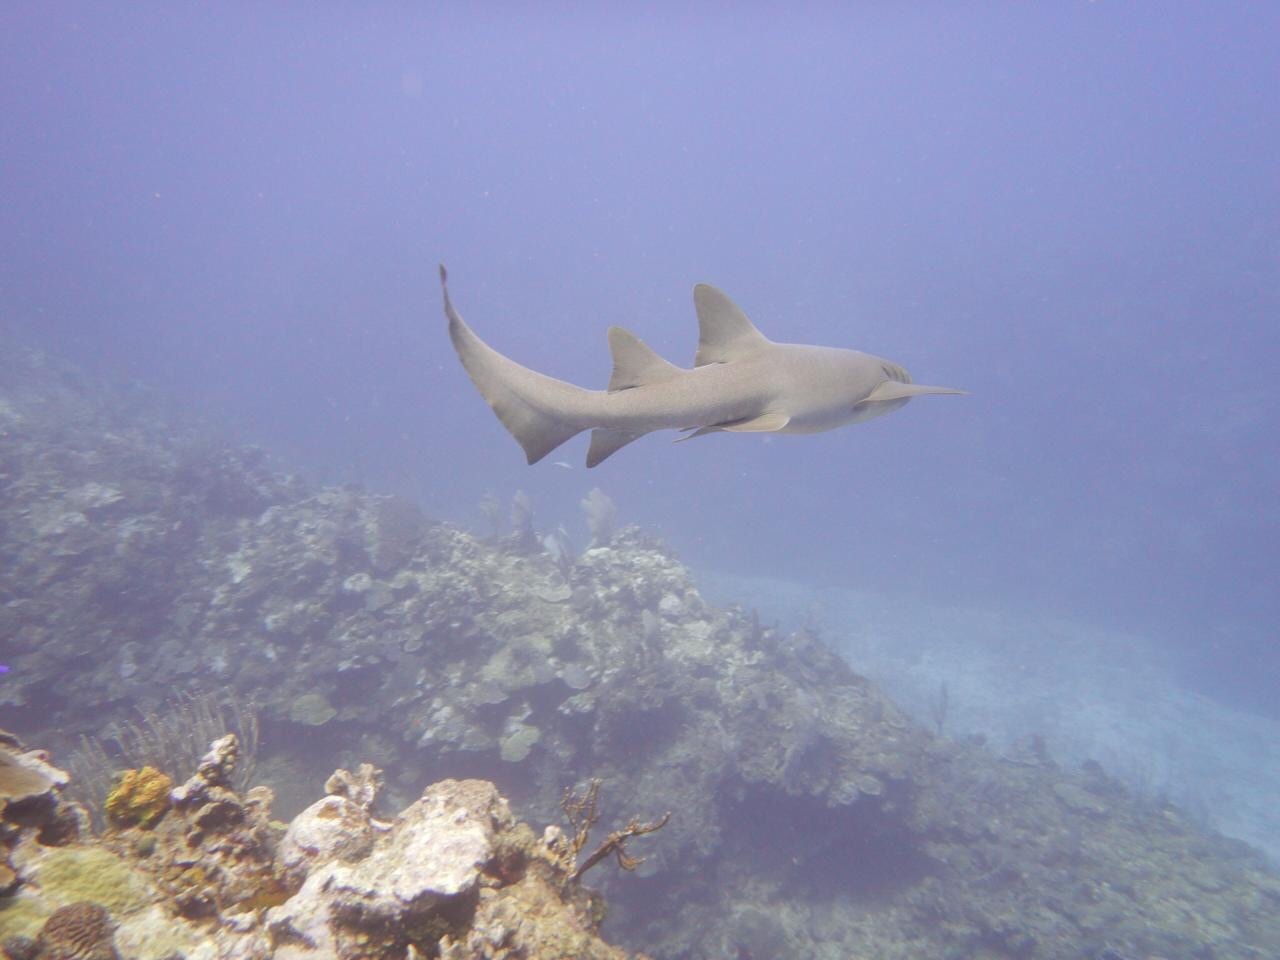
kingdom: Animalia
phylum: Chordata
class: Elasmobranchii
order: Orectolobiformes
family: Ginglymostomatidae
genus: Ginglymostoma
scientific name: Ginglymostoma cirratum
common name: Nurse shark
